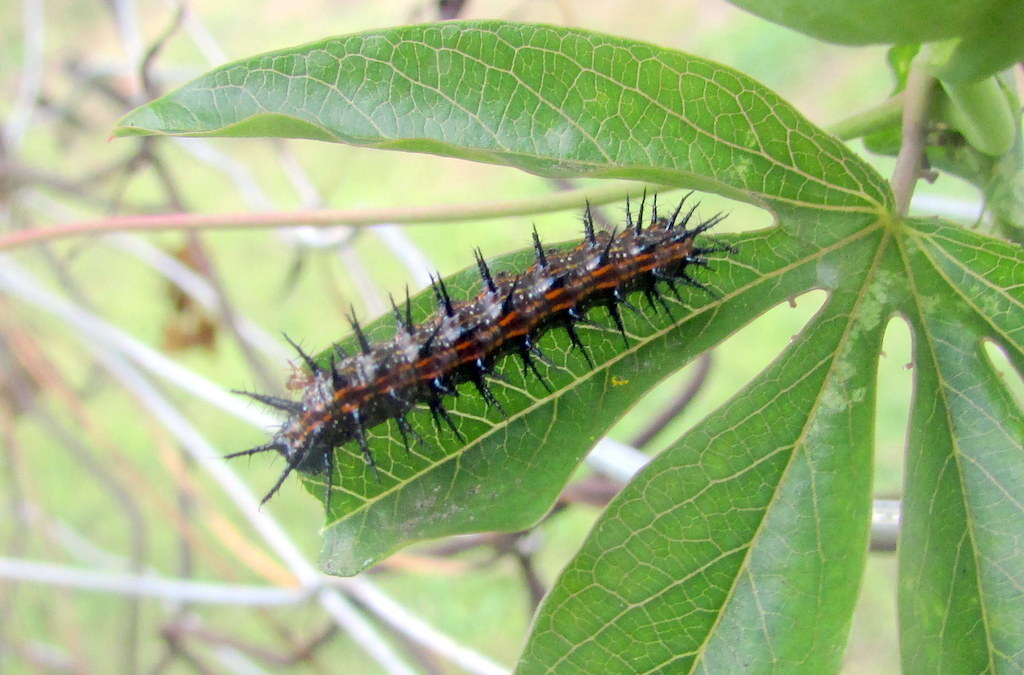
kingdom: Animalia
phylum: Arthropoda
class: Insecta
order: Lepidoptera
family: Nymphalidae
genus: Dione
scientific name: Dione vanillae
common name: Gulf fritillary
